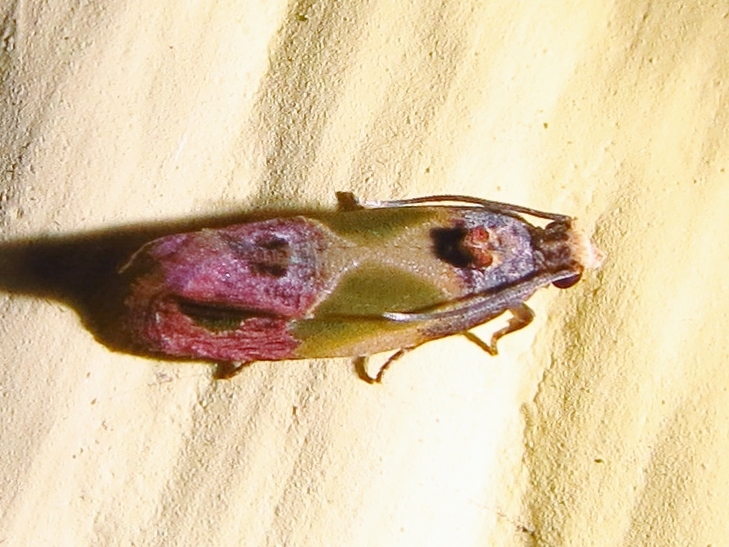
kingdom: Animalia
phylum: Arthropoda
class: Insecta
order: Lepidoptera
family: Tortricidae
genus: Eumarozia
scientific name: Eumarozia malachitana
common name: Sculptured moth
